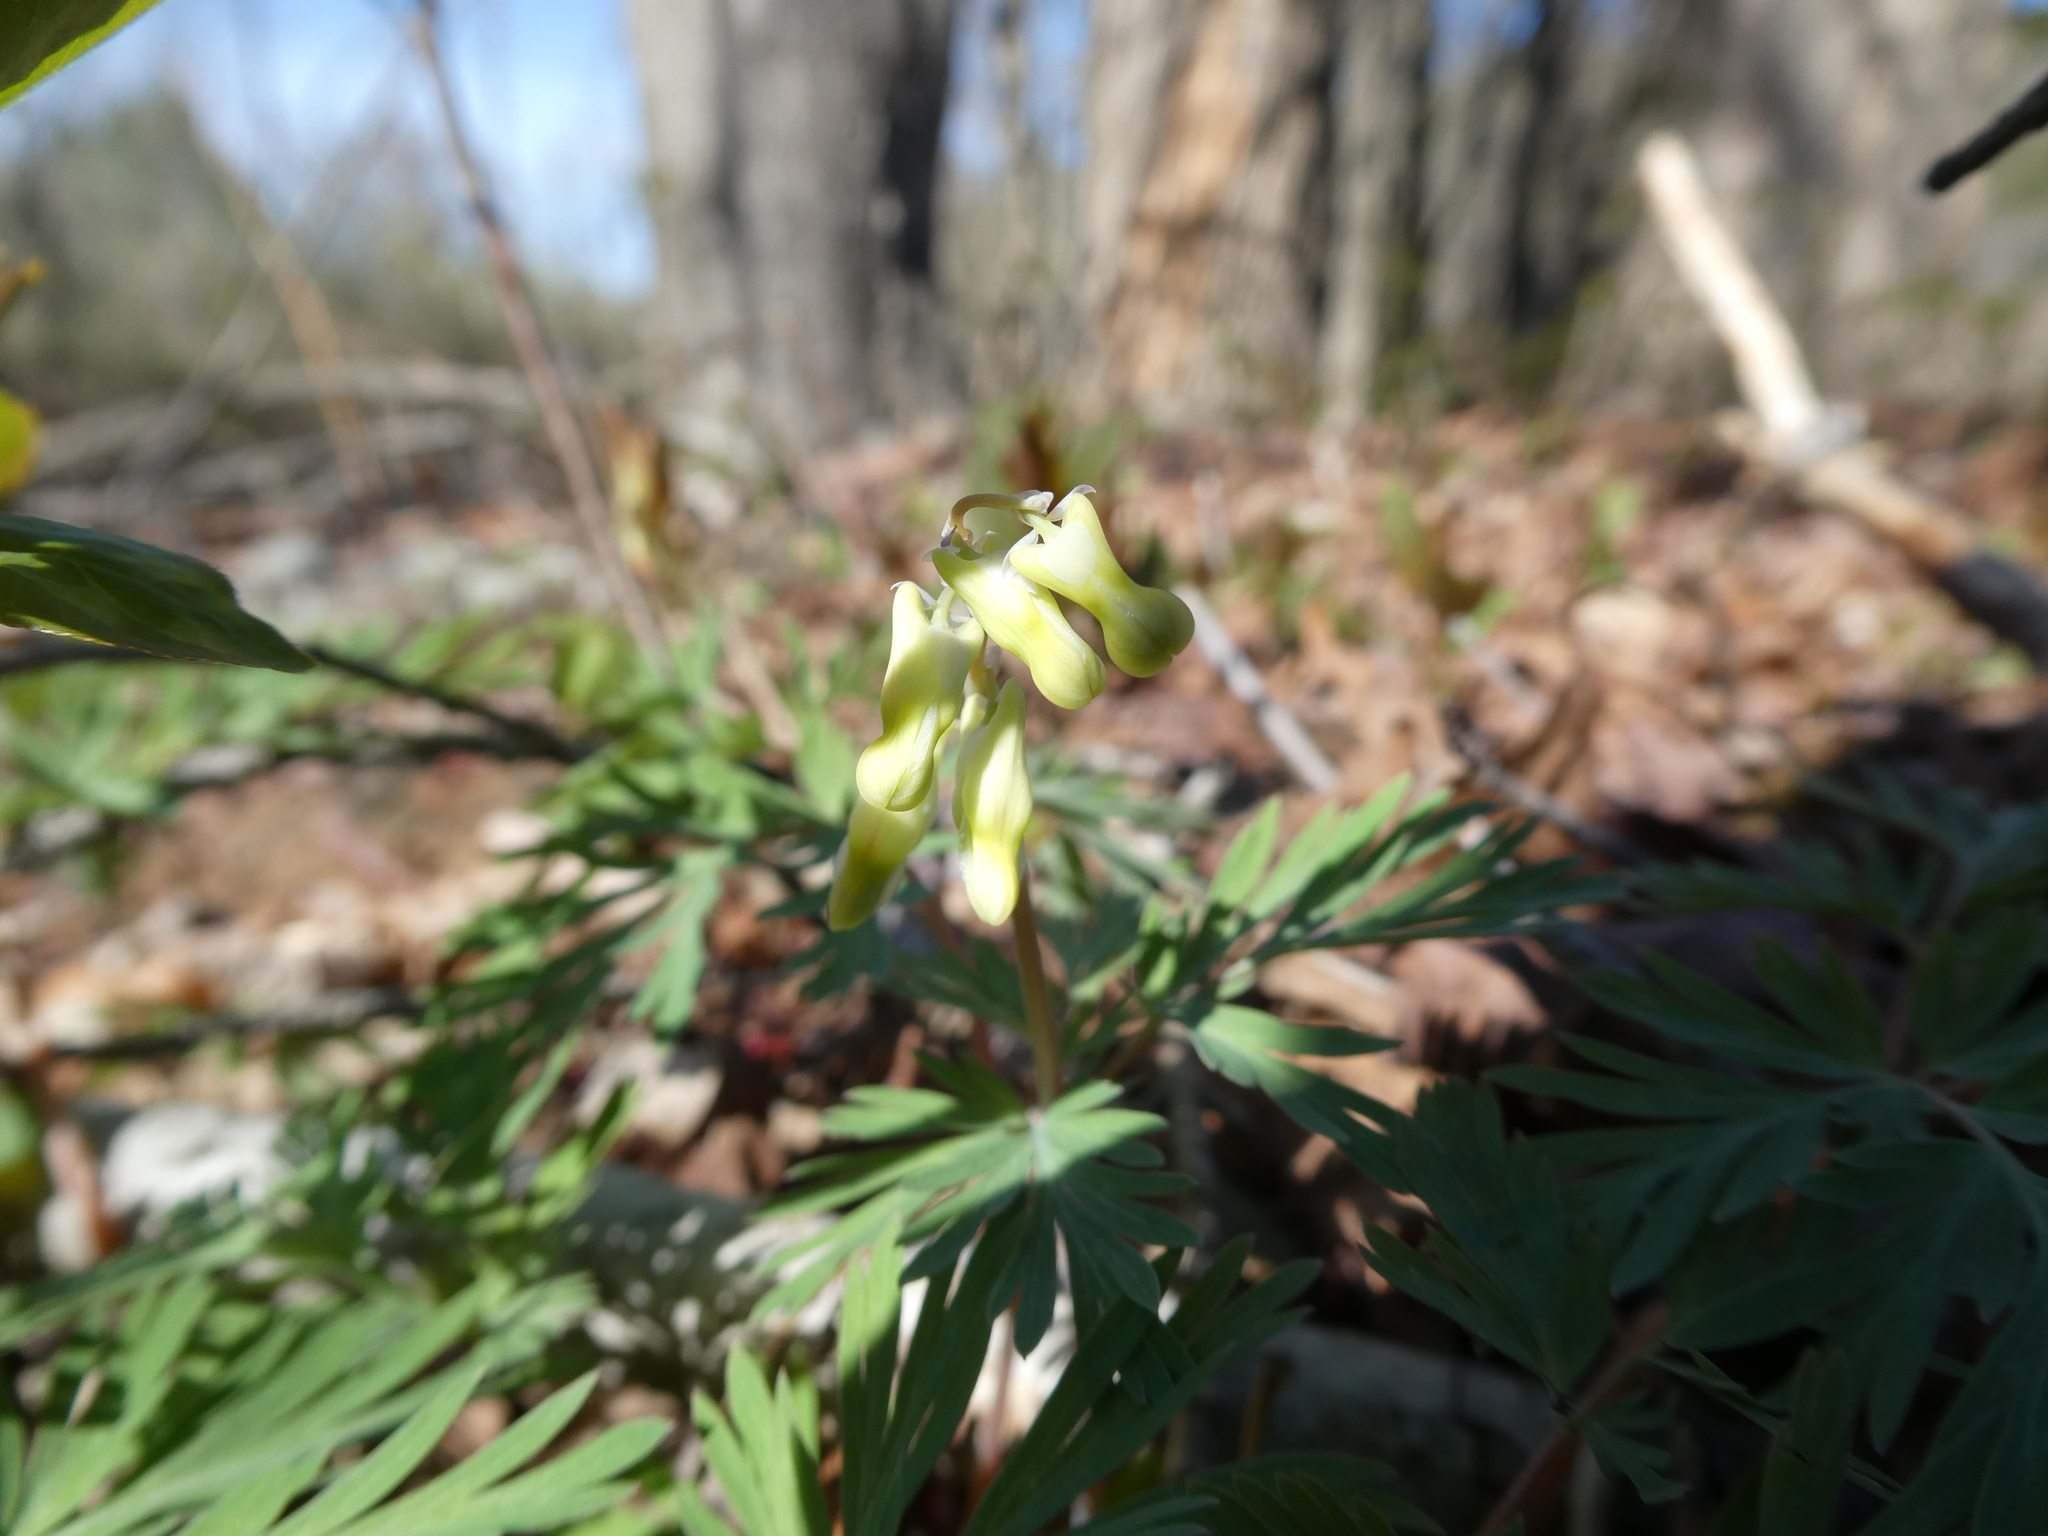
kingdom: Plantae
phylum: Tracheophyta
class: Magnoliopsida
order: Ranunculales
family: Papaveraceae
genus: Dicentra
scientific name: Dicentra cucullaria
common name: Dutchman's breeches
